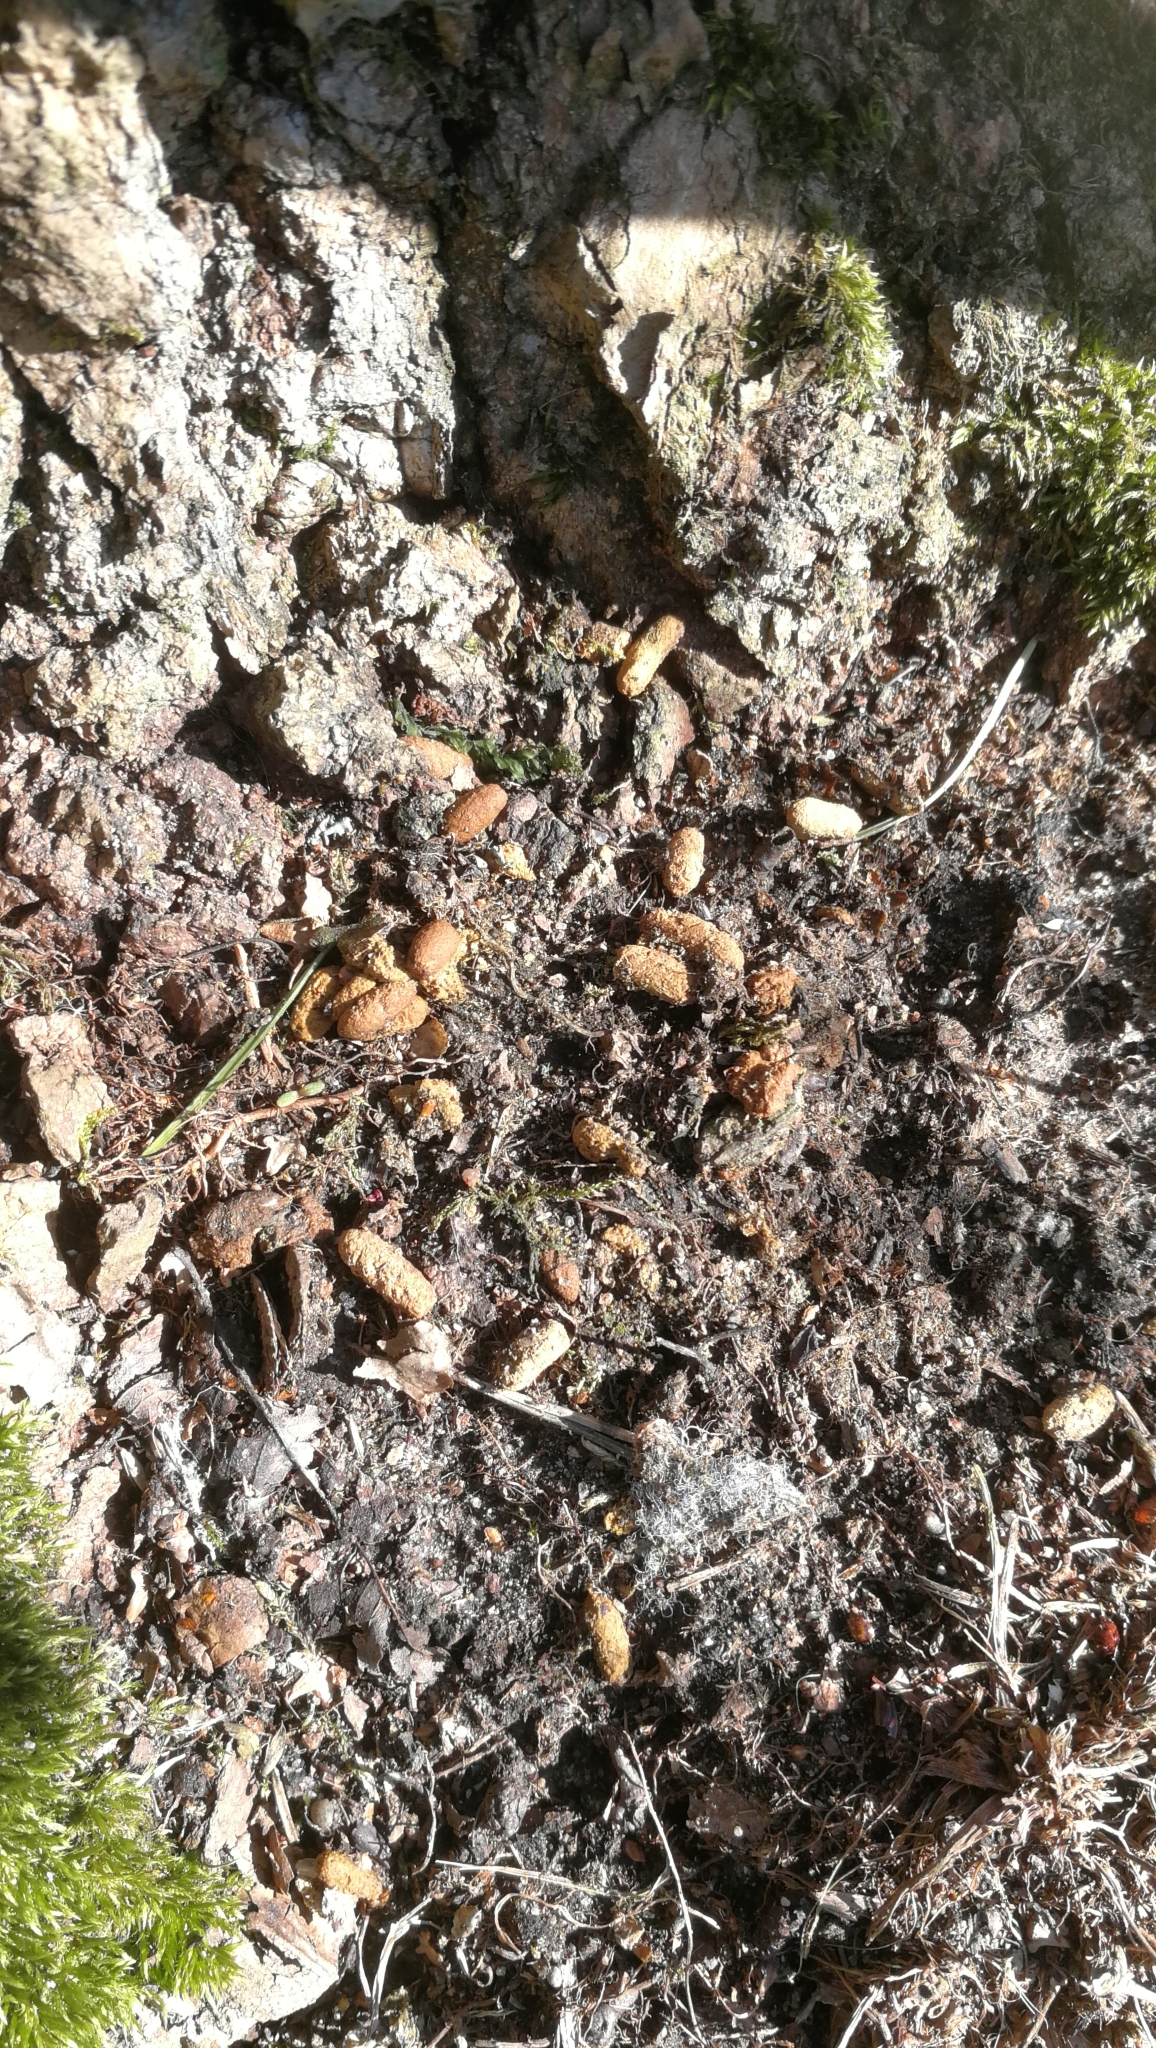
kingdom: Animalia
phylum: Chordata
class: Mammalia
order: Rodentia
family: Sciuridae
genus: Pteromys
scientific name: Pteromys volans
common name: Siberian flying squirrel
